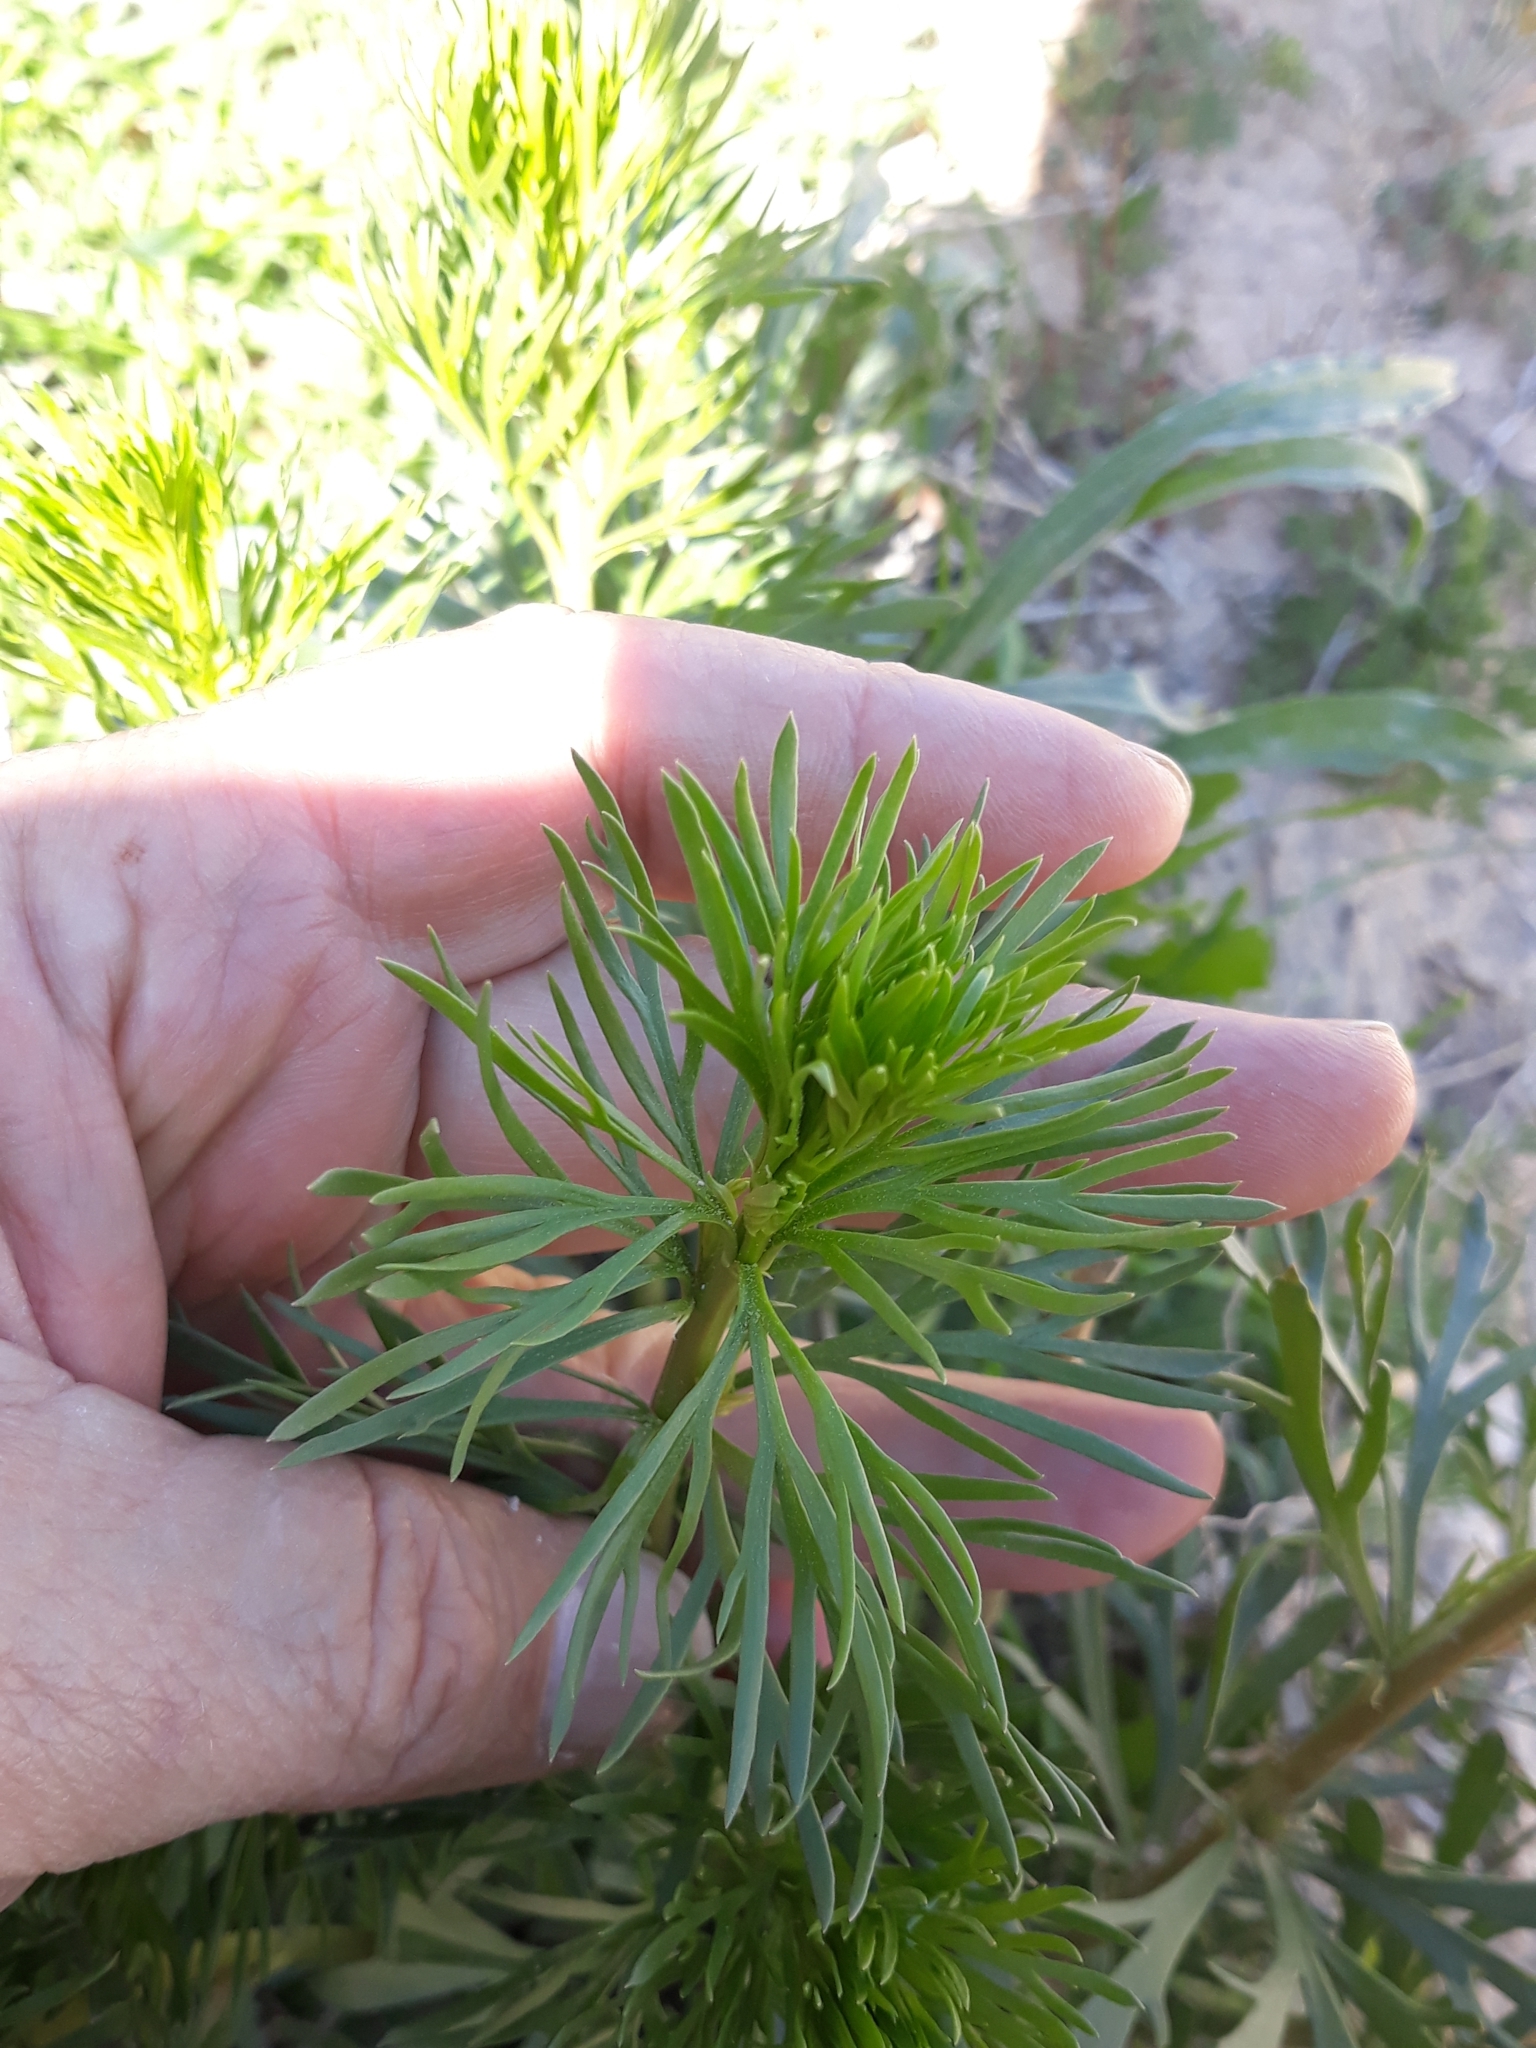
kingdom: Plantae
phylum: Tracheophyta
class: Magnoliopsida
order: Sapindales
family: Tetradiclidaceae
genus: Peganum
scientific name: Peganum harmala
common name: Harmal peganum
